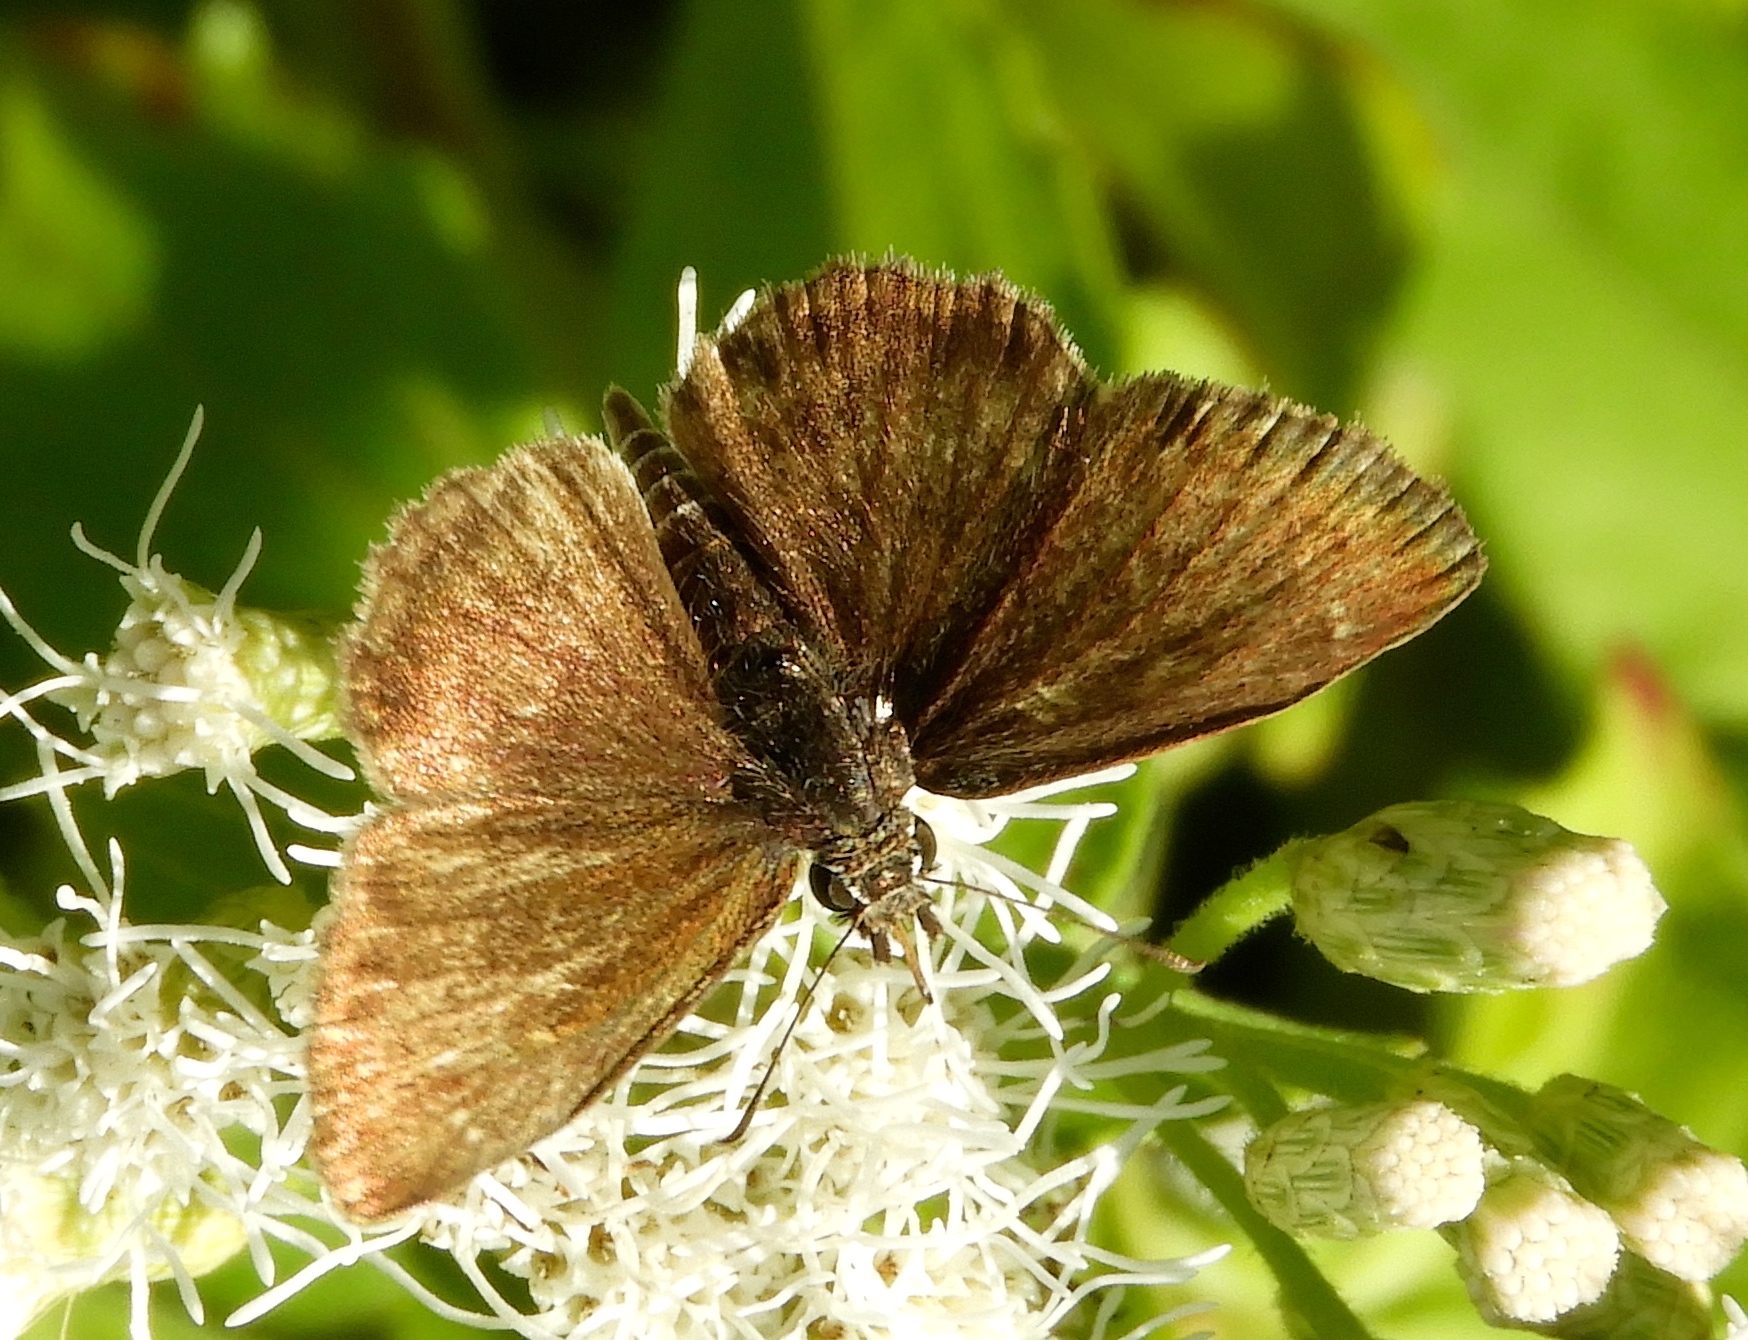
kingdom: Animalia
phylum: Arthropoda
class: Insecta
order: Lepidoptera
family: Hesperiidae
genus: Zopyrion
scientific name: Zopyrion sandace
